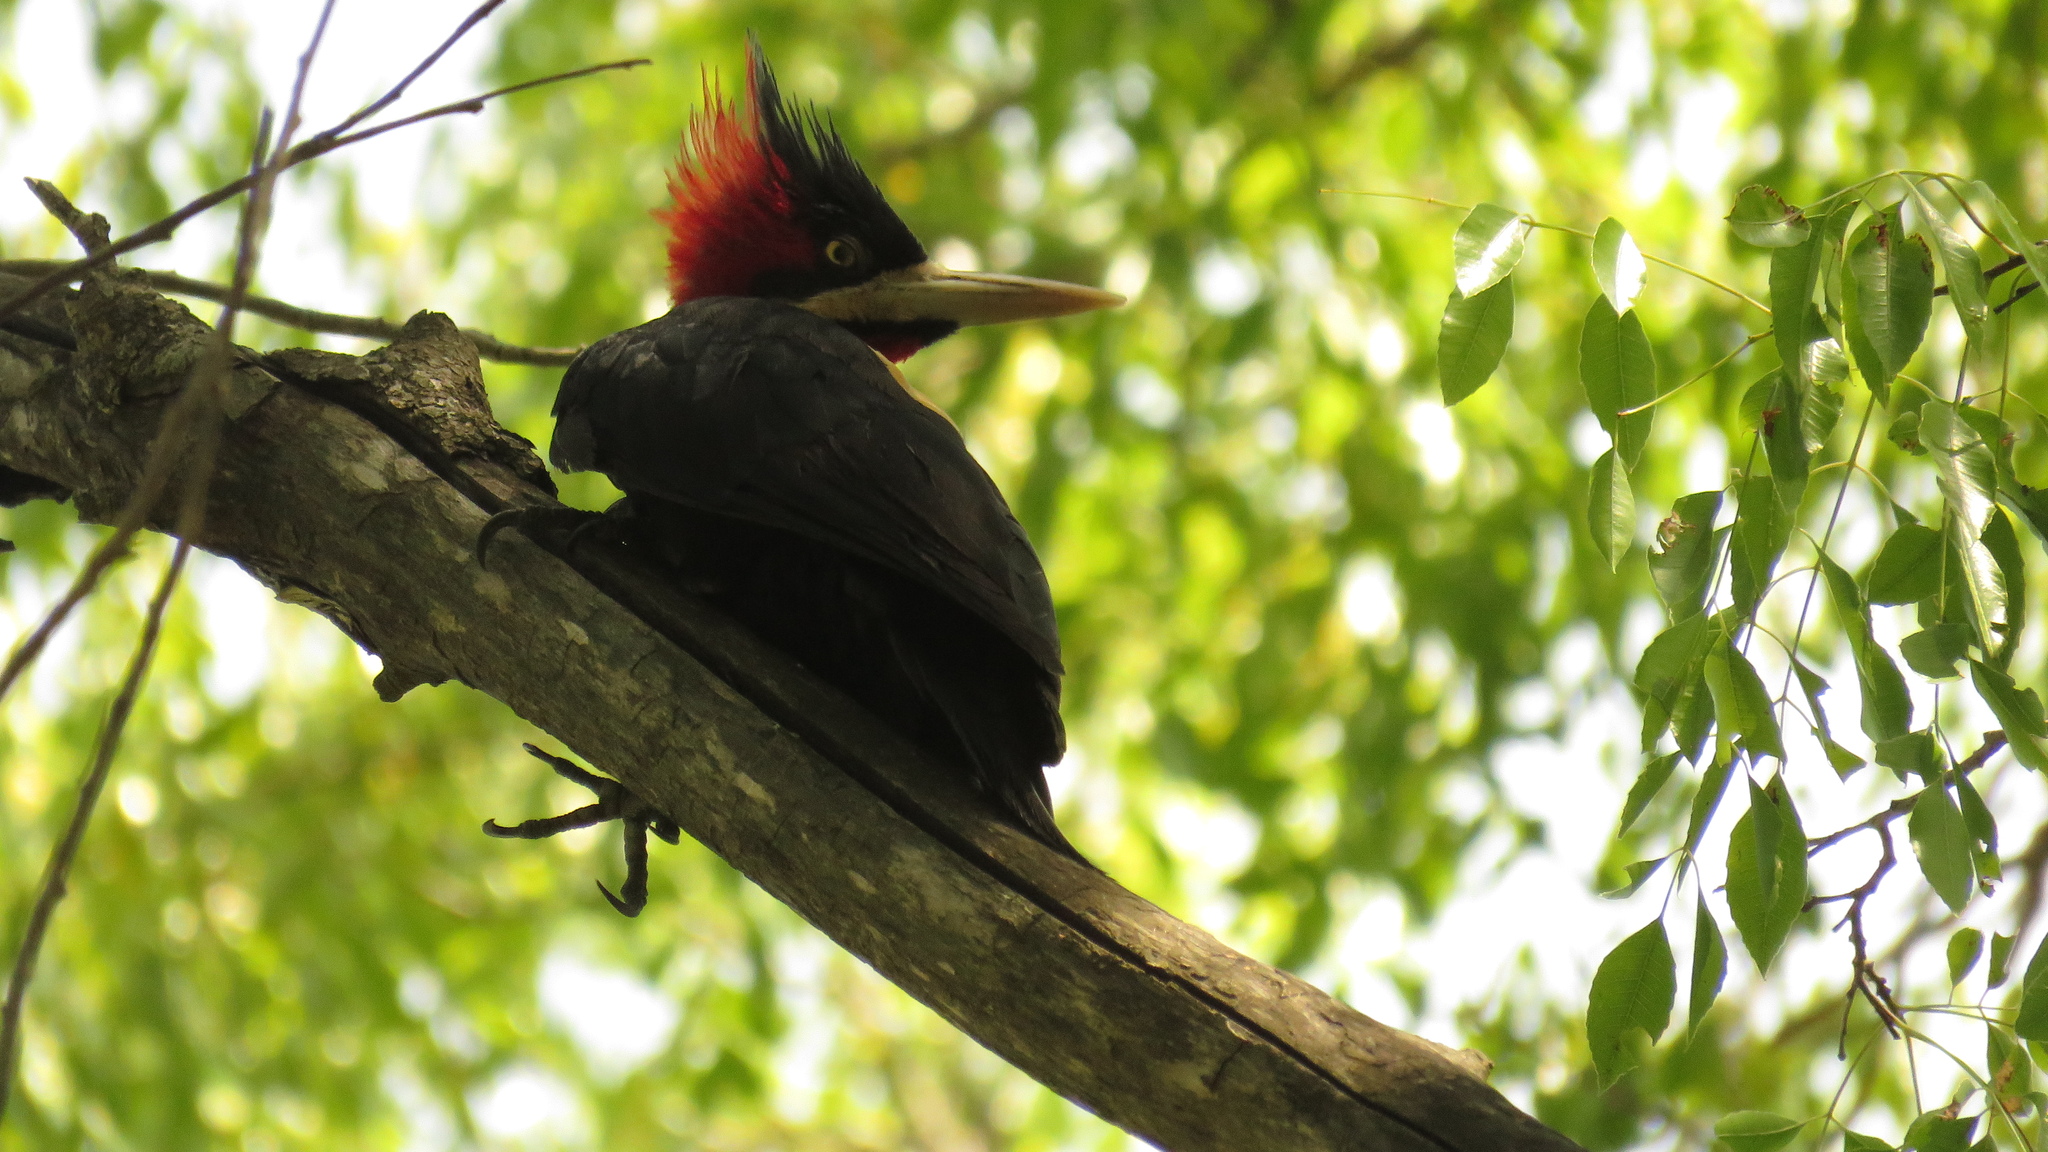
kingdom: Animalia
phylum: Chordata
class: Aves
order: Piciformes
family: Picidae
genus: Campephilus
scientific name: Campephilus leucopogon
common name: Cream-backed woodpecker
